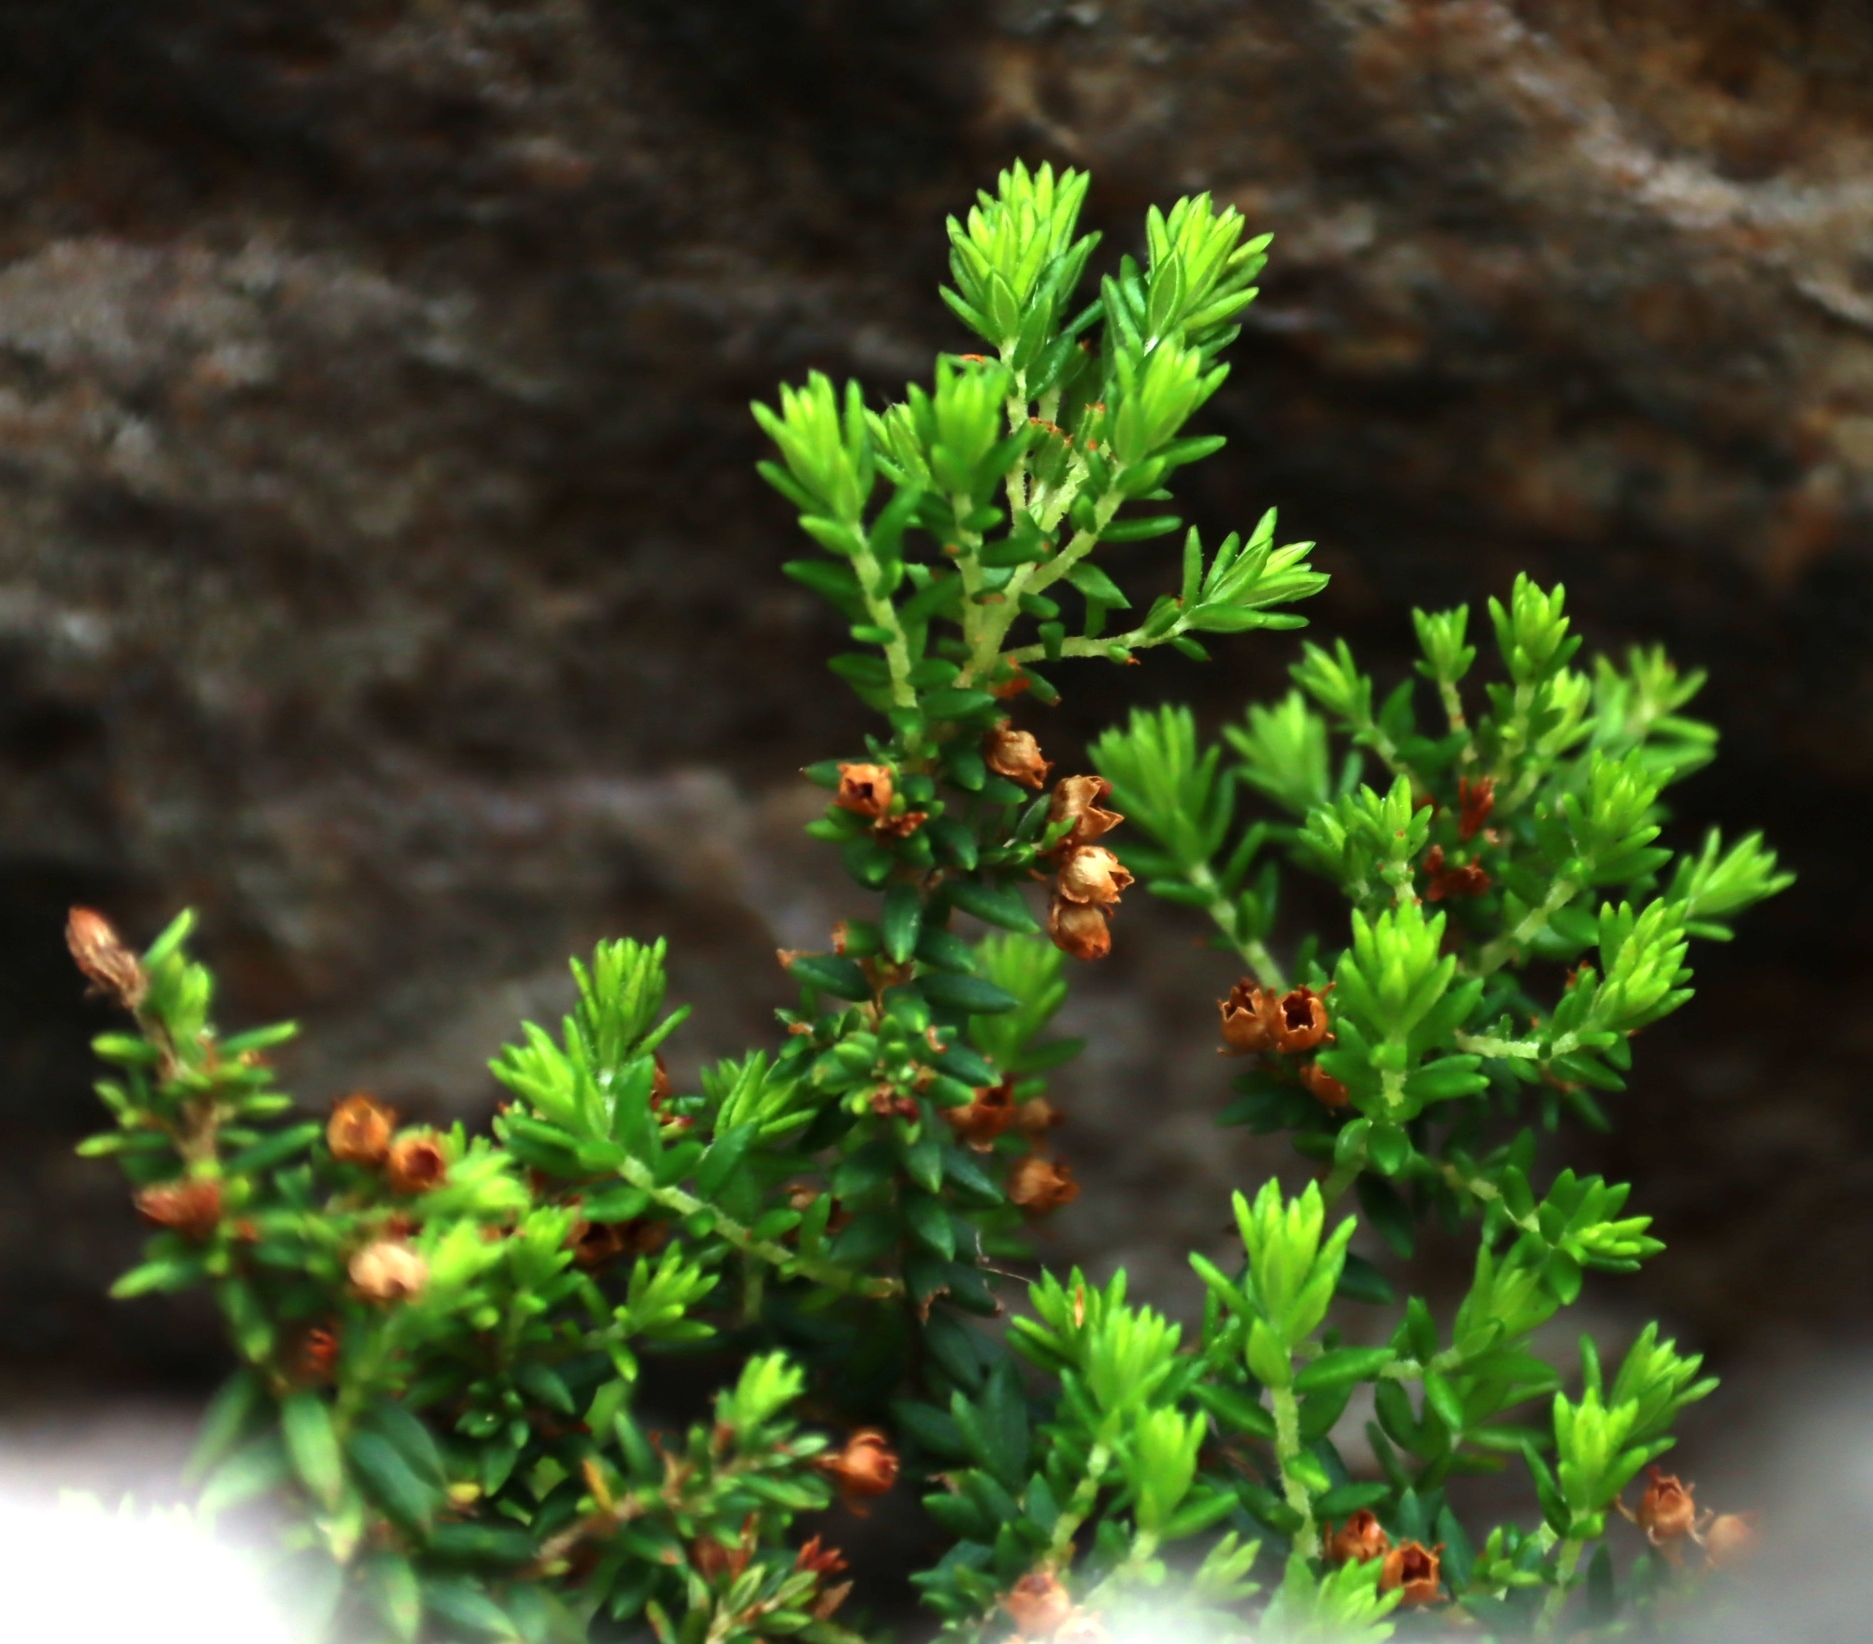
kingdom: Plantae
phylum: Tracheophyta
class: Magnoliopsida
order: Ericales
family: Ericaceae
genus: Erica
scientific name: Erica hispidula
